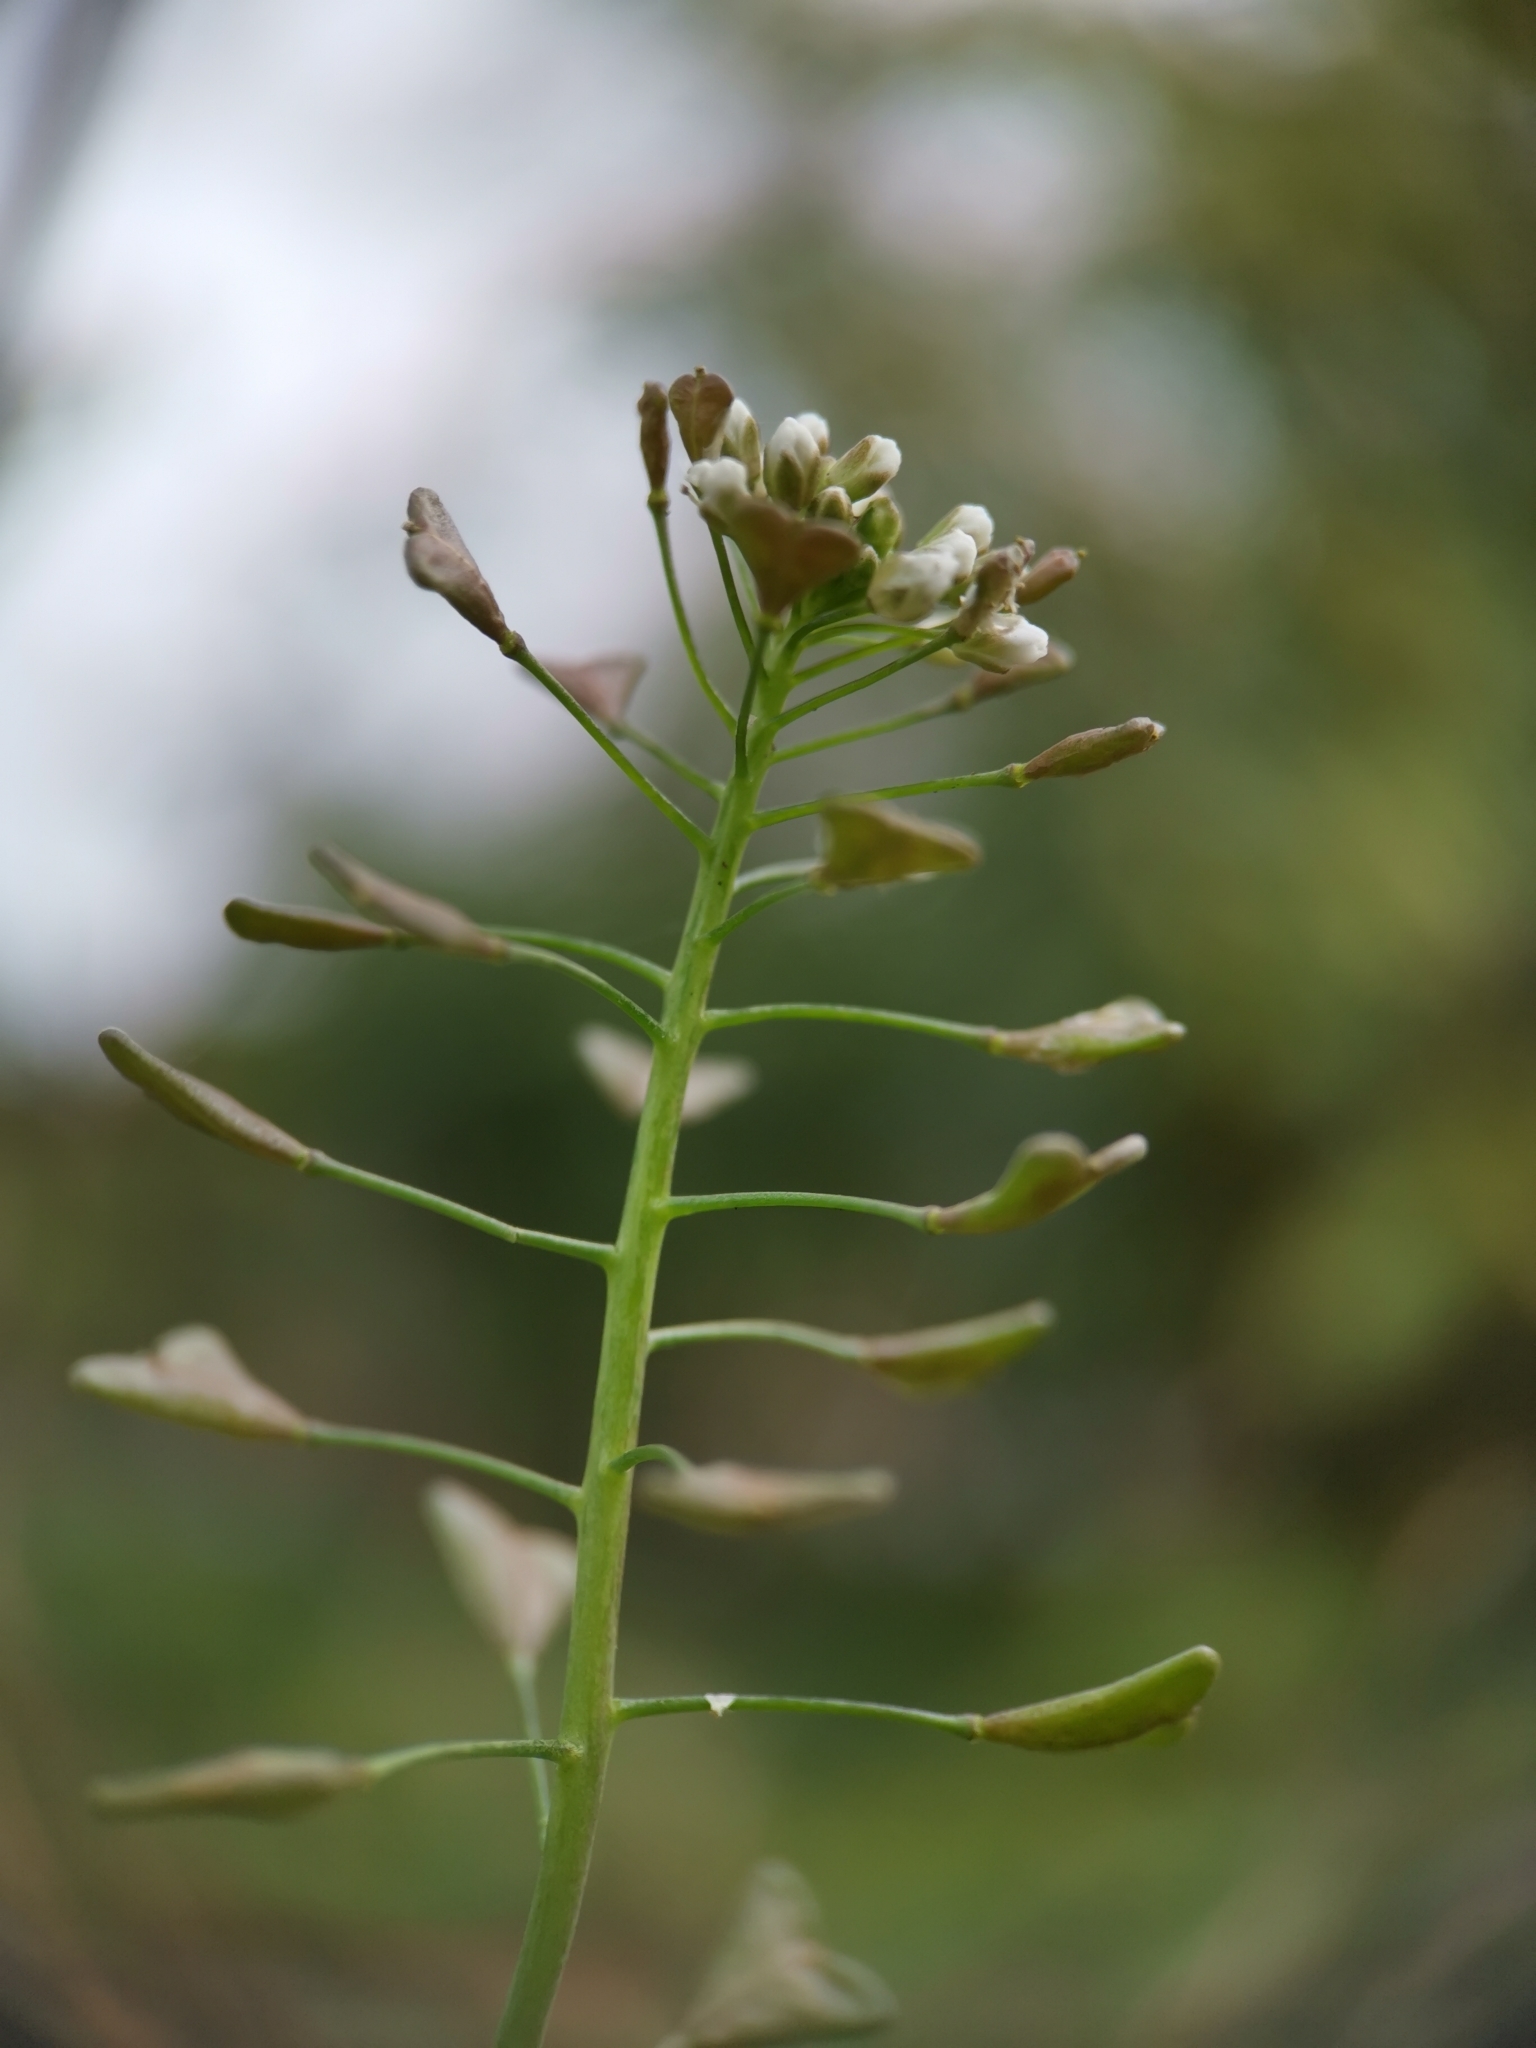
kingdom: Plantae
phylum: Tracheophyta
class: Magnoliopsida
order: Brassicales
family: Brassicaceae
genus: Capsella
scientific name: Capsella bursa-pastoris
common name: Shepherd's purse
